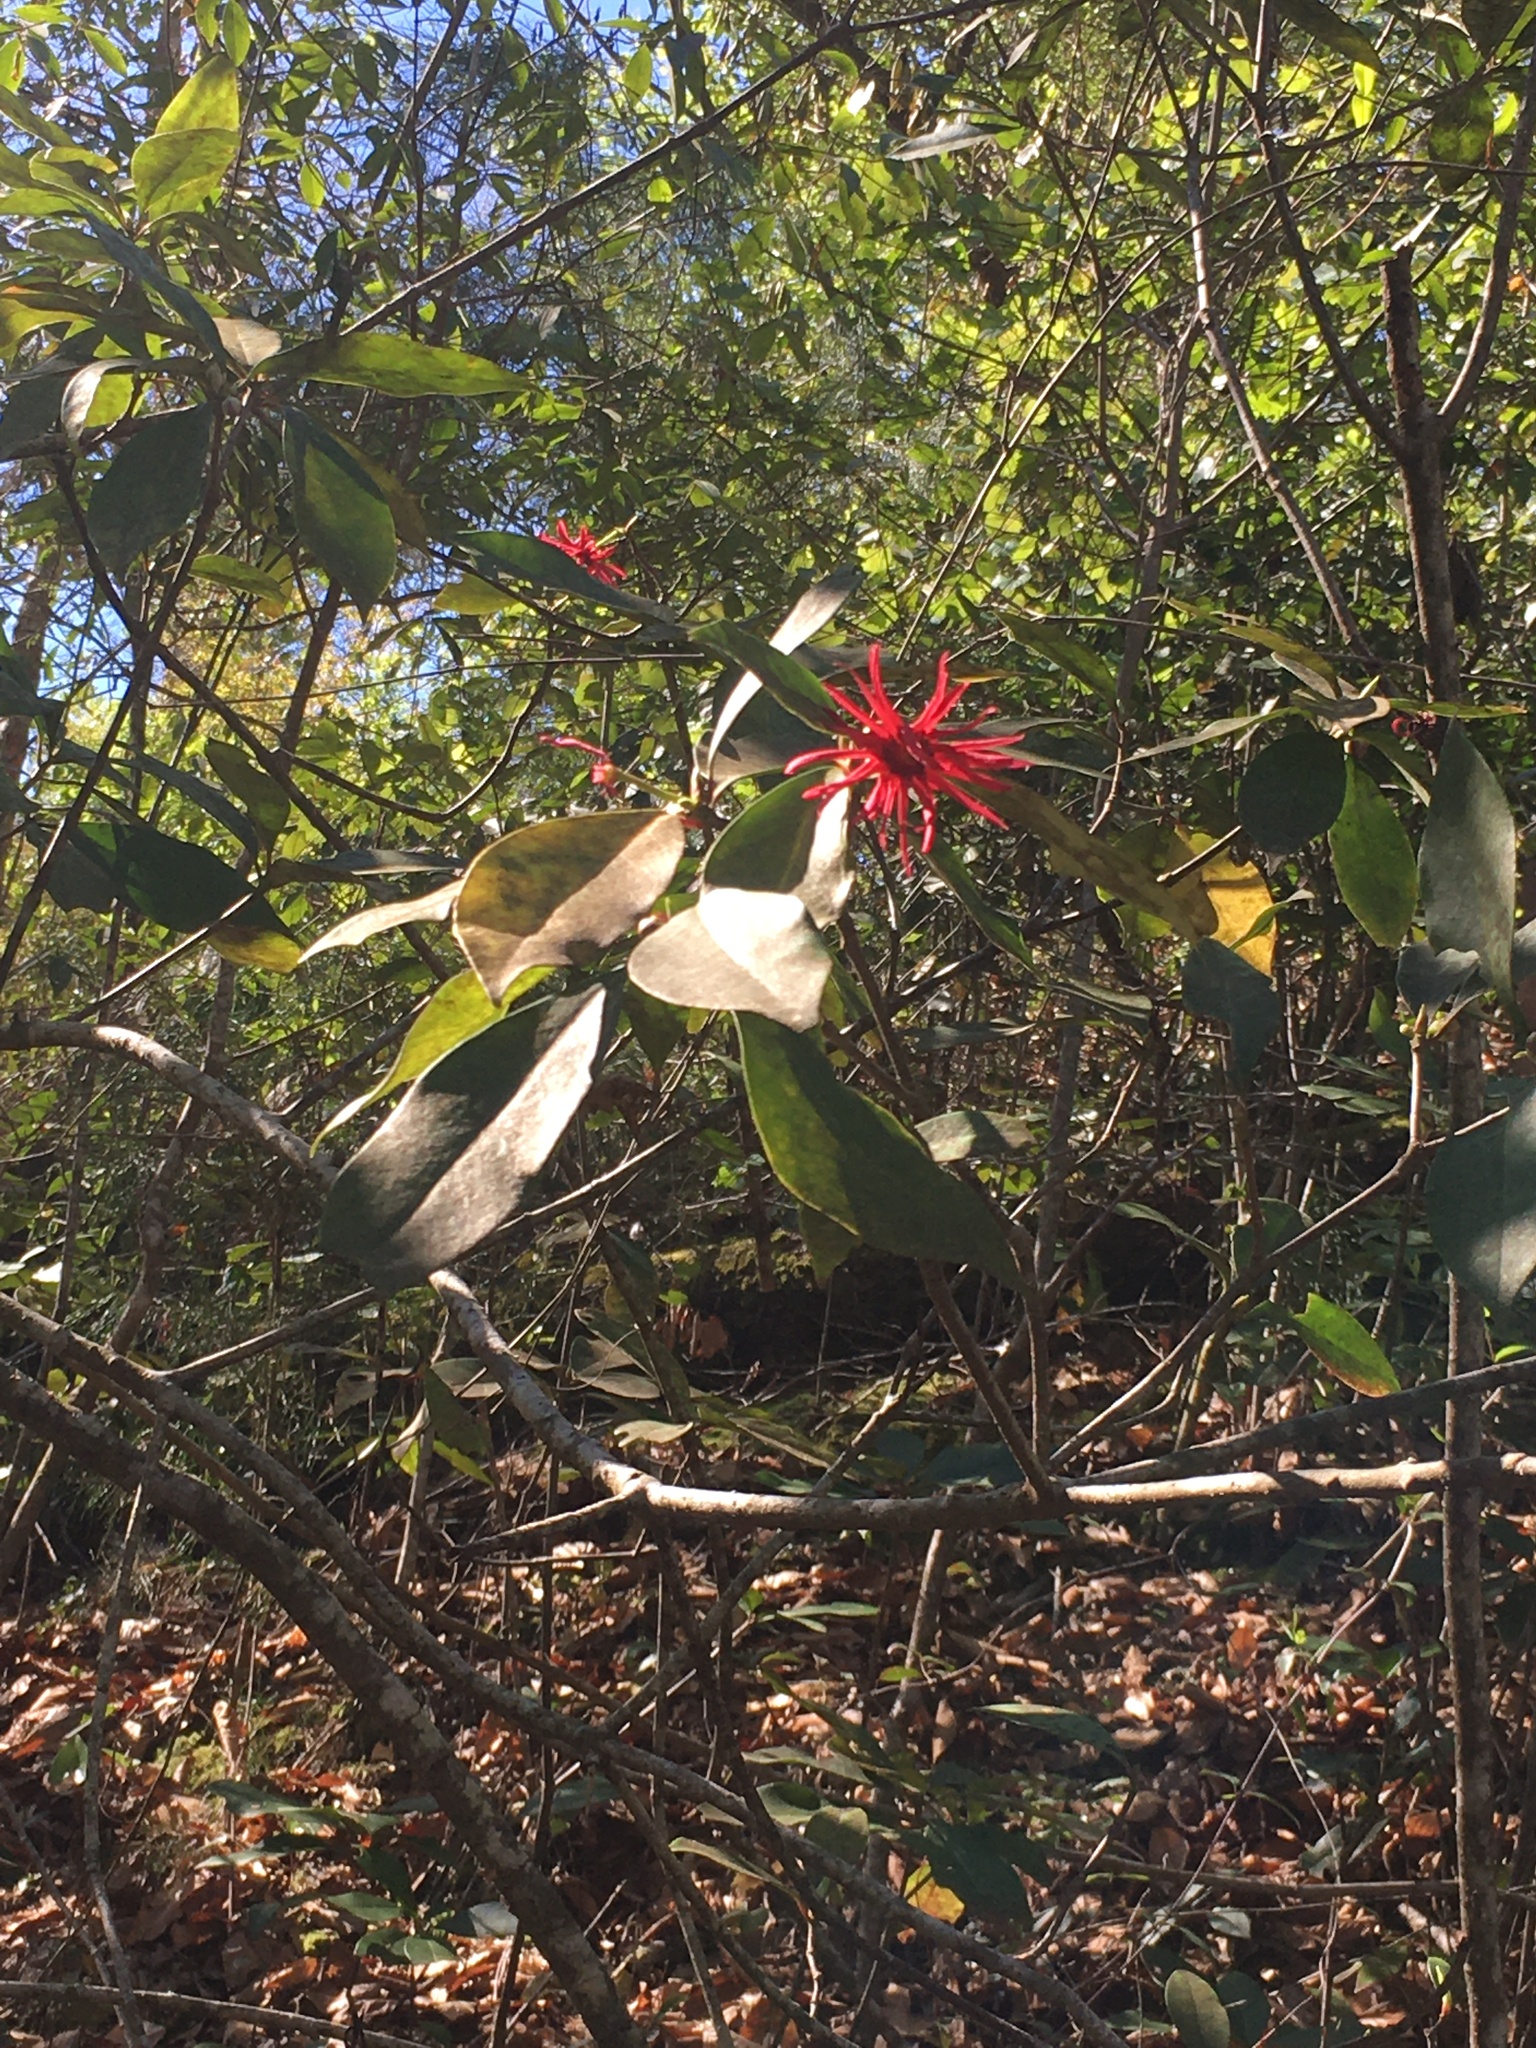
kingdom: Plantae
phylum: Tracheophyta
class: Magnoliopsida
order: Austrobaileyales
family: Schisandraceae
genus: Illicium
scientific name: Illicium floridanum
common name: Florida anisetree
